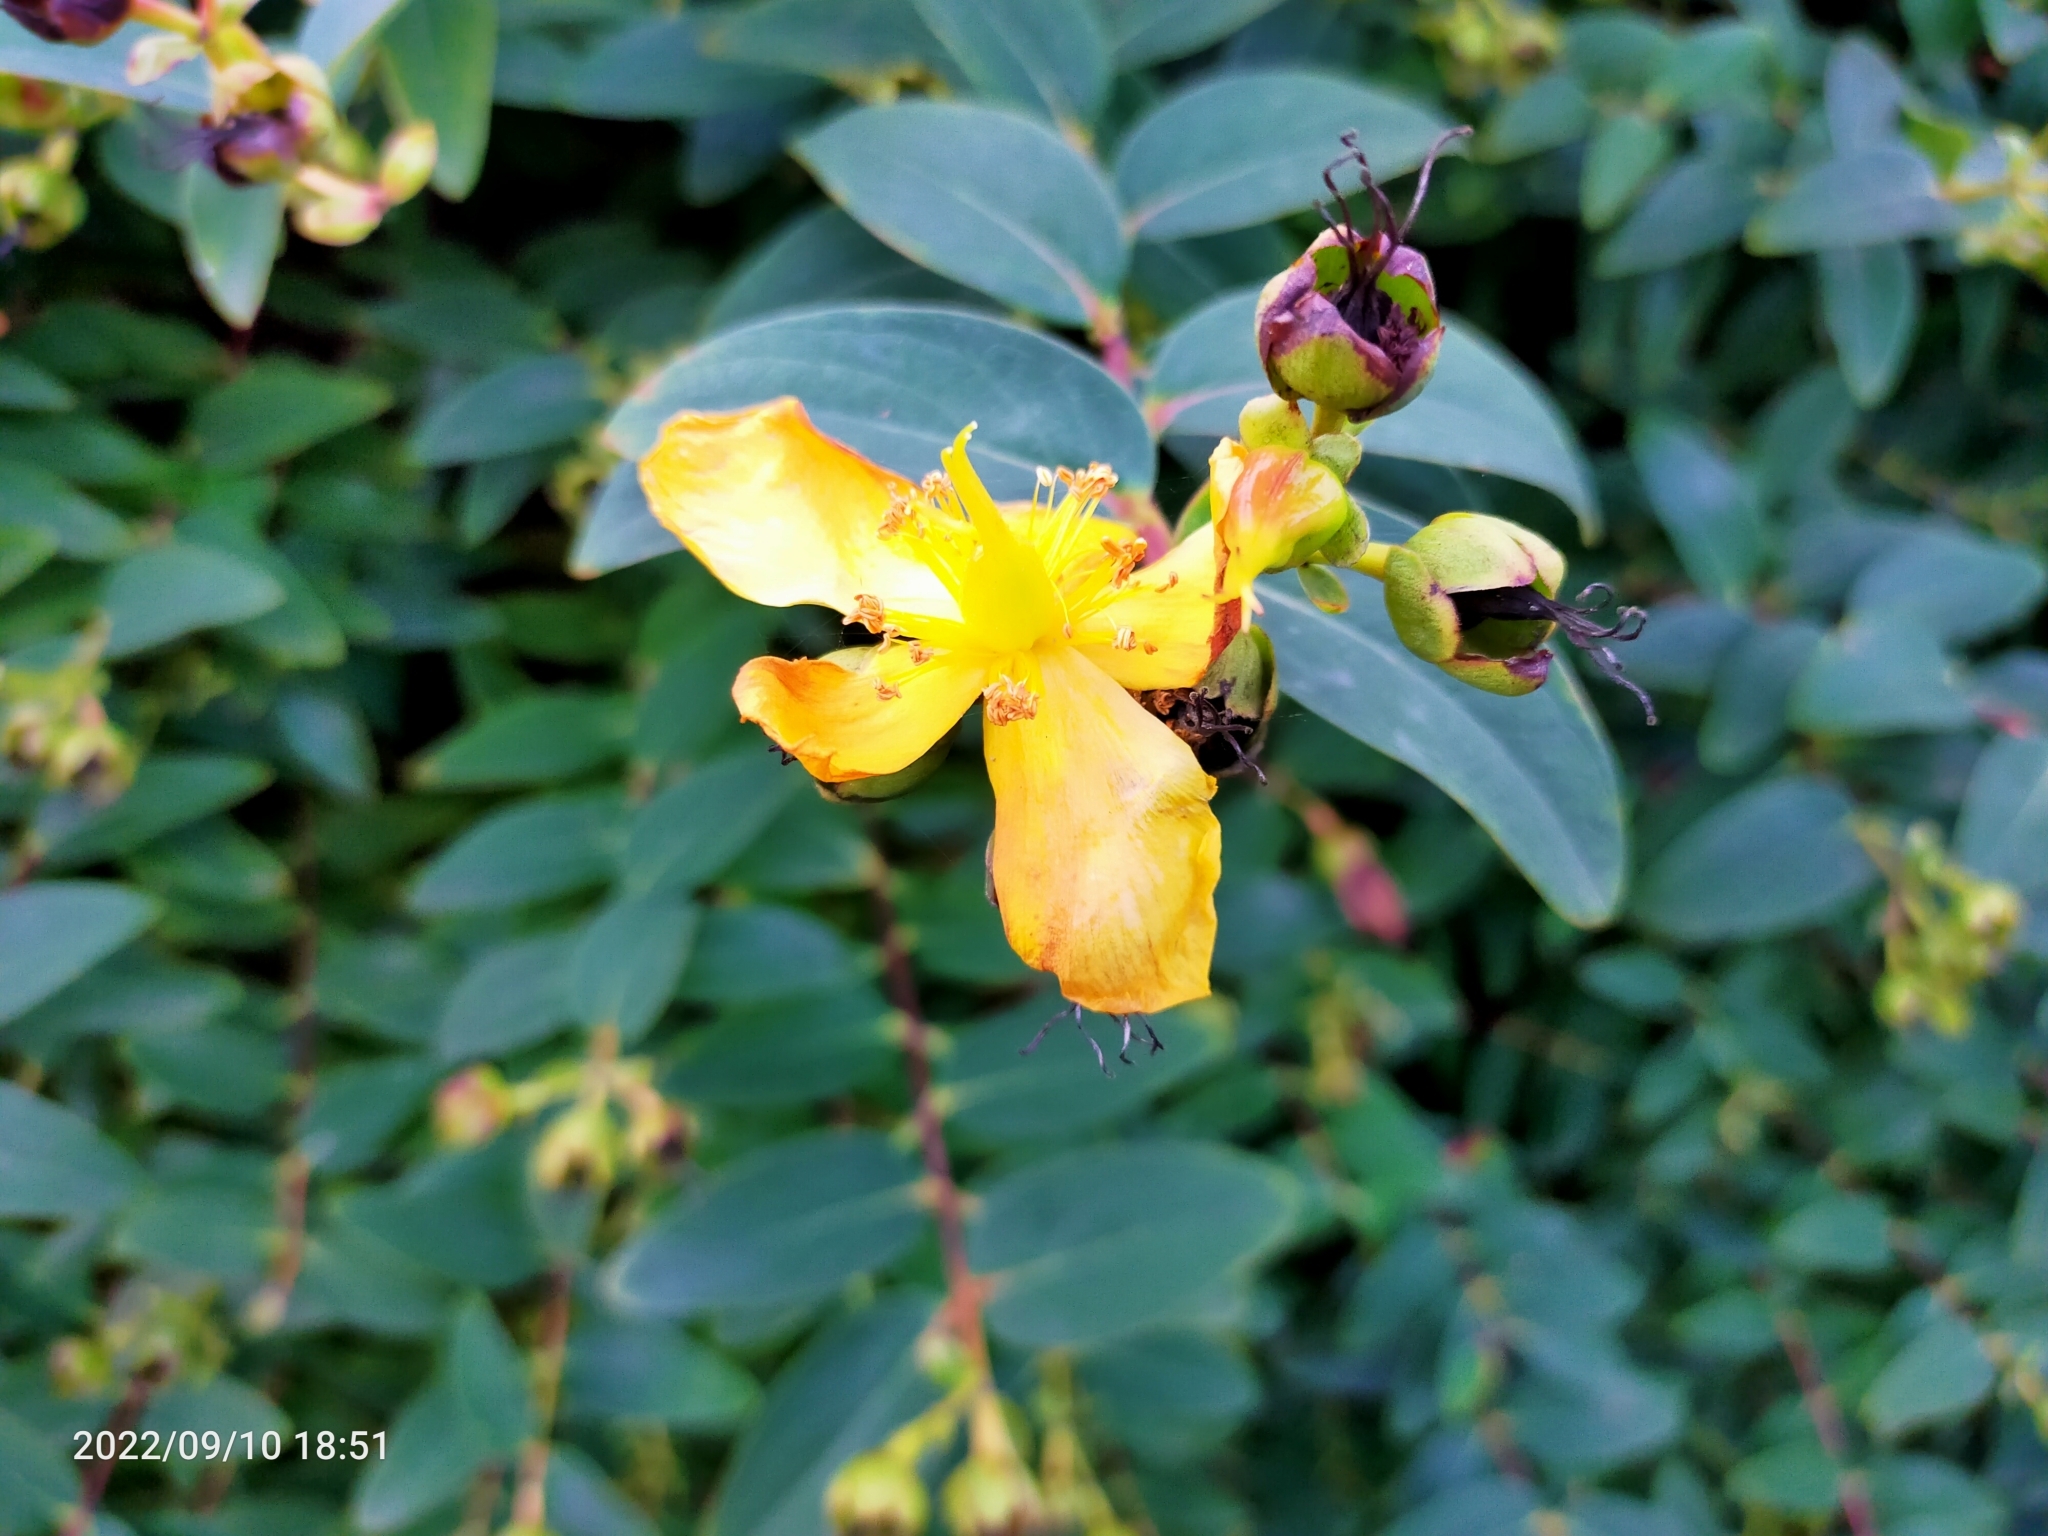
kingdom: Plantae
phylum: Tracheophyta
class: Magnoliopsida
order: Malpighiales
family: Hypericaceae
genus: Hypericum
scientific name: Hypericum
